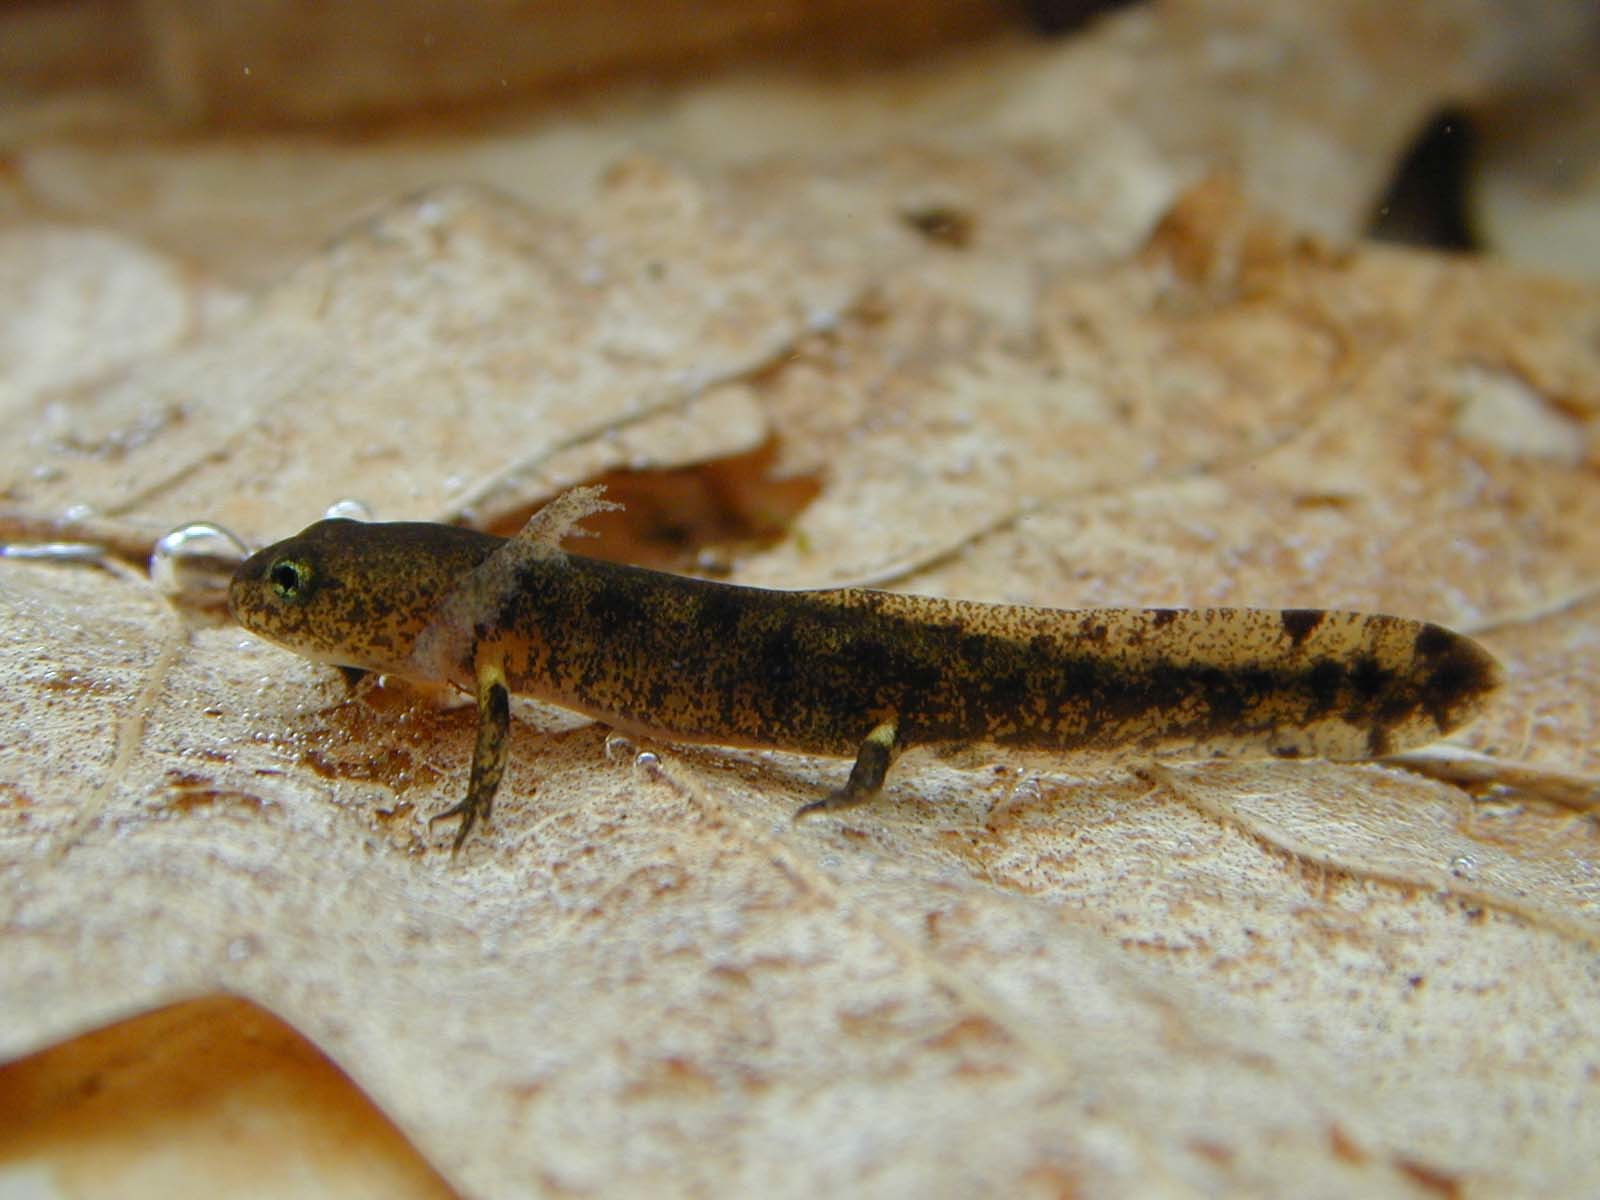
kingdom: Animalia
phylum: Chordata
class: Amphibia
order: Caudata
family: Salamandridae
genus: Salamandra
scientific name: Salamandra salamandra
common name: Fire salamander
